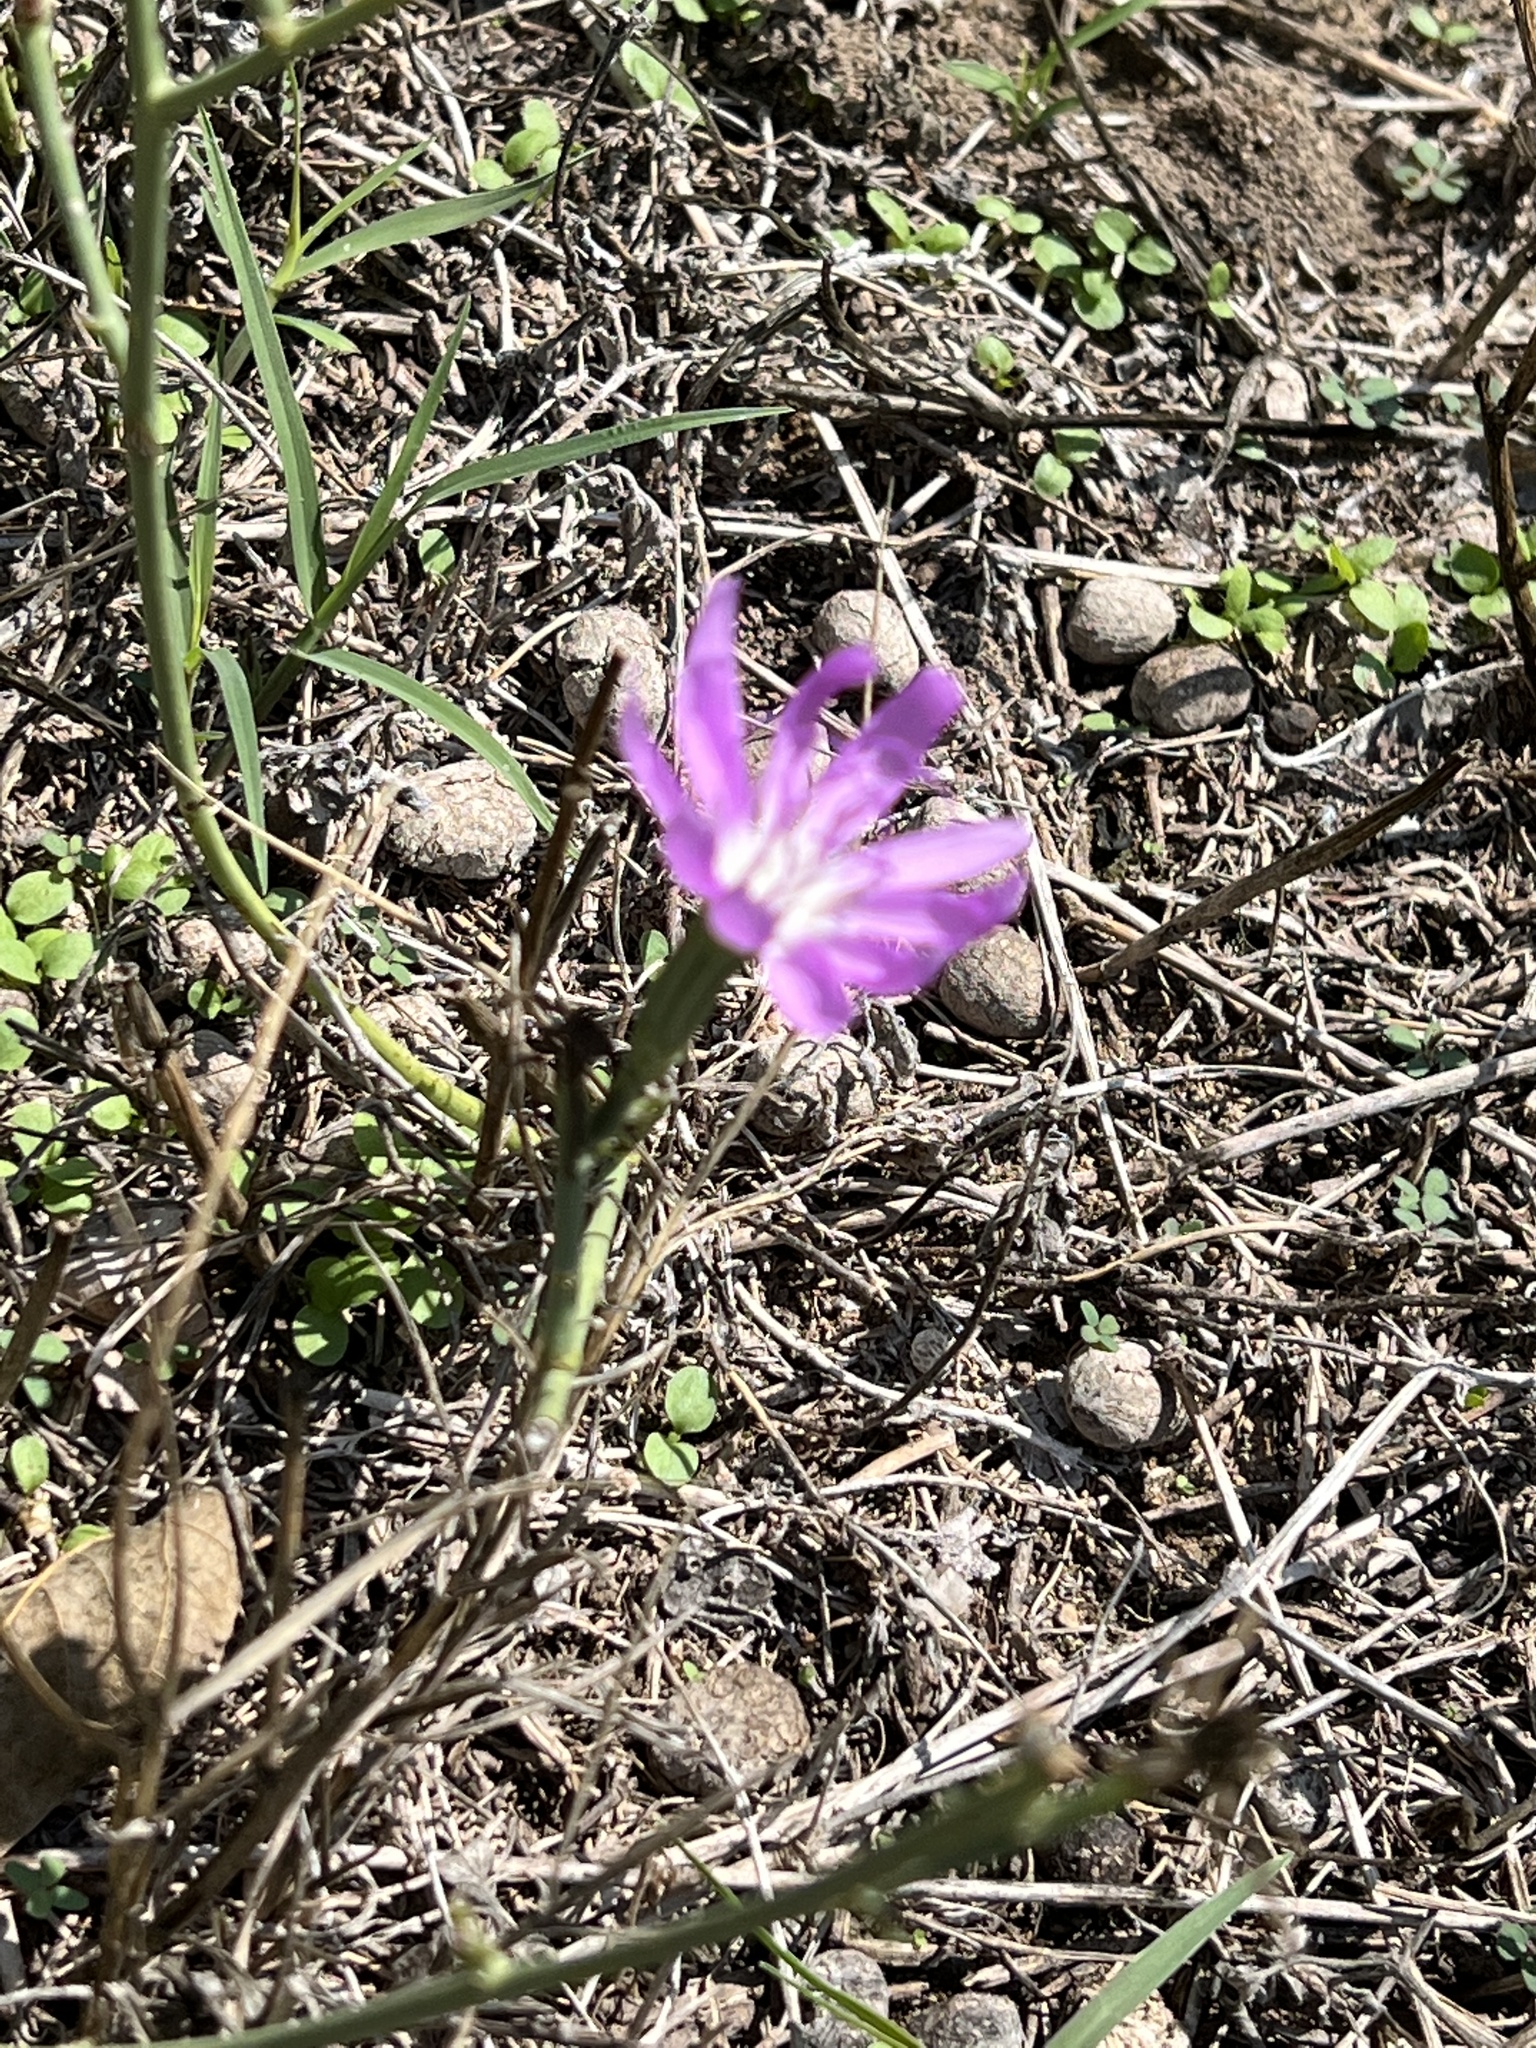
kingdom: Plantae
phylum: Tracheophyta
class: Magnoliopsida
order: Asterales
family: Asteraceae
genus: Lygodesmia
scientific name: Lygodesmia texana
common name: Texas skeleton-plant
